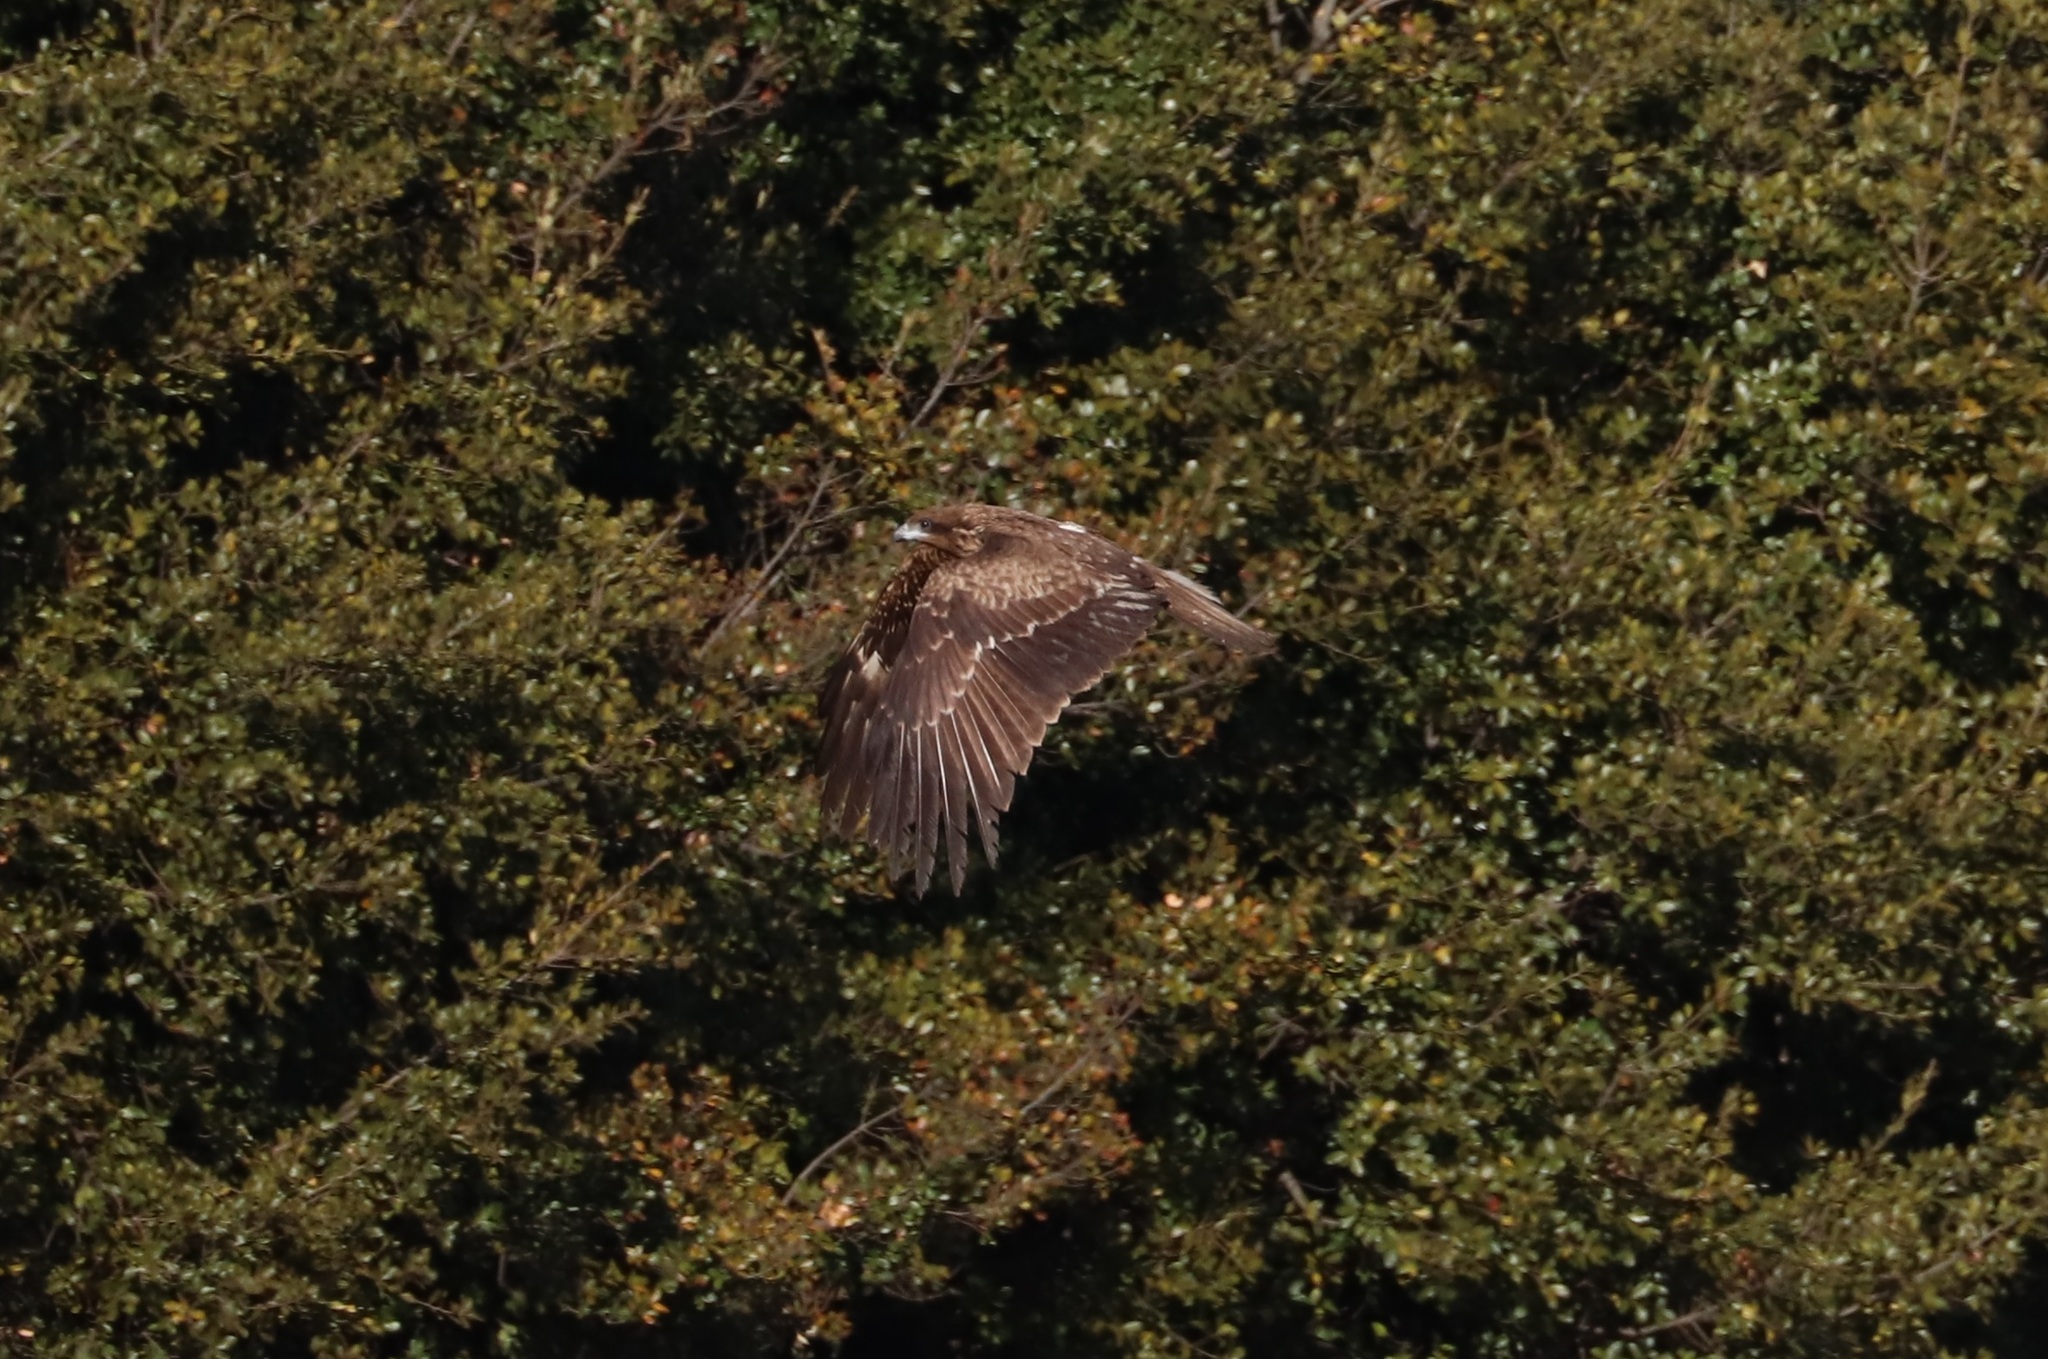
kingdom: Animalia
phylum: Chordata
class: Aves
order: Accipitriformes
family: Accipitridae
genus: Milvus
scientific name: Milvus migrans
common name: Black kite
